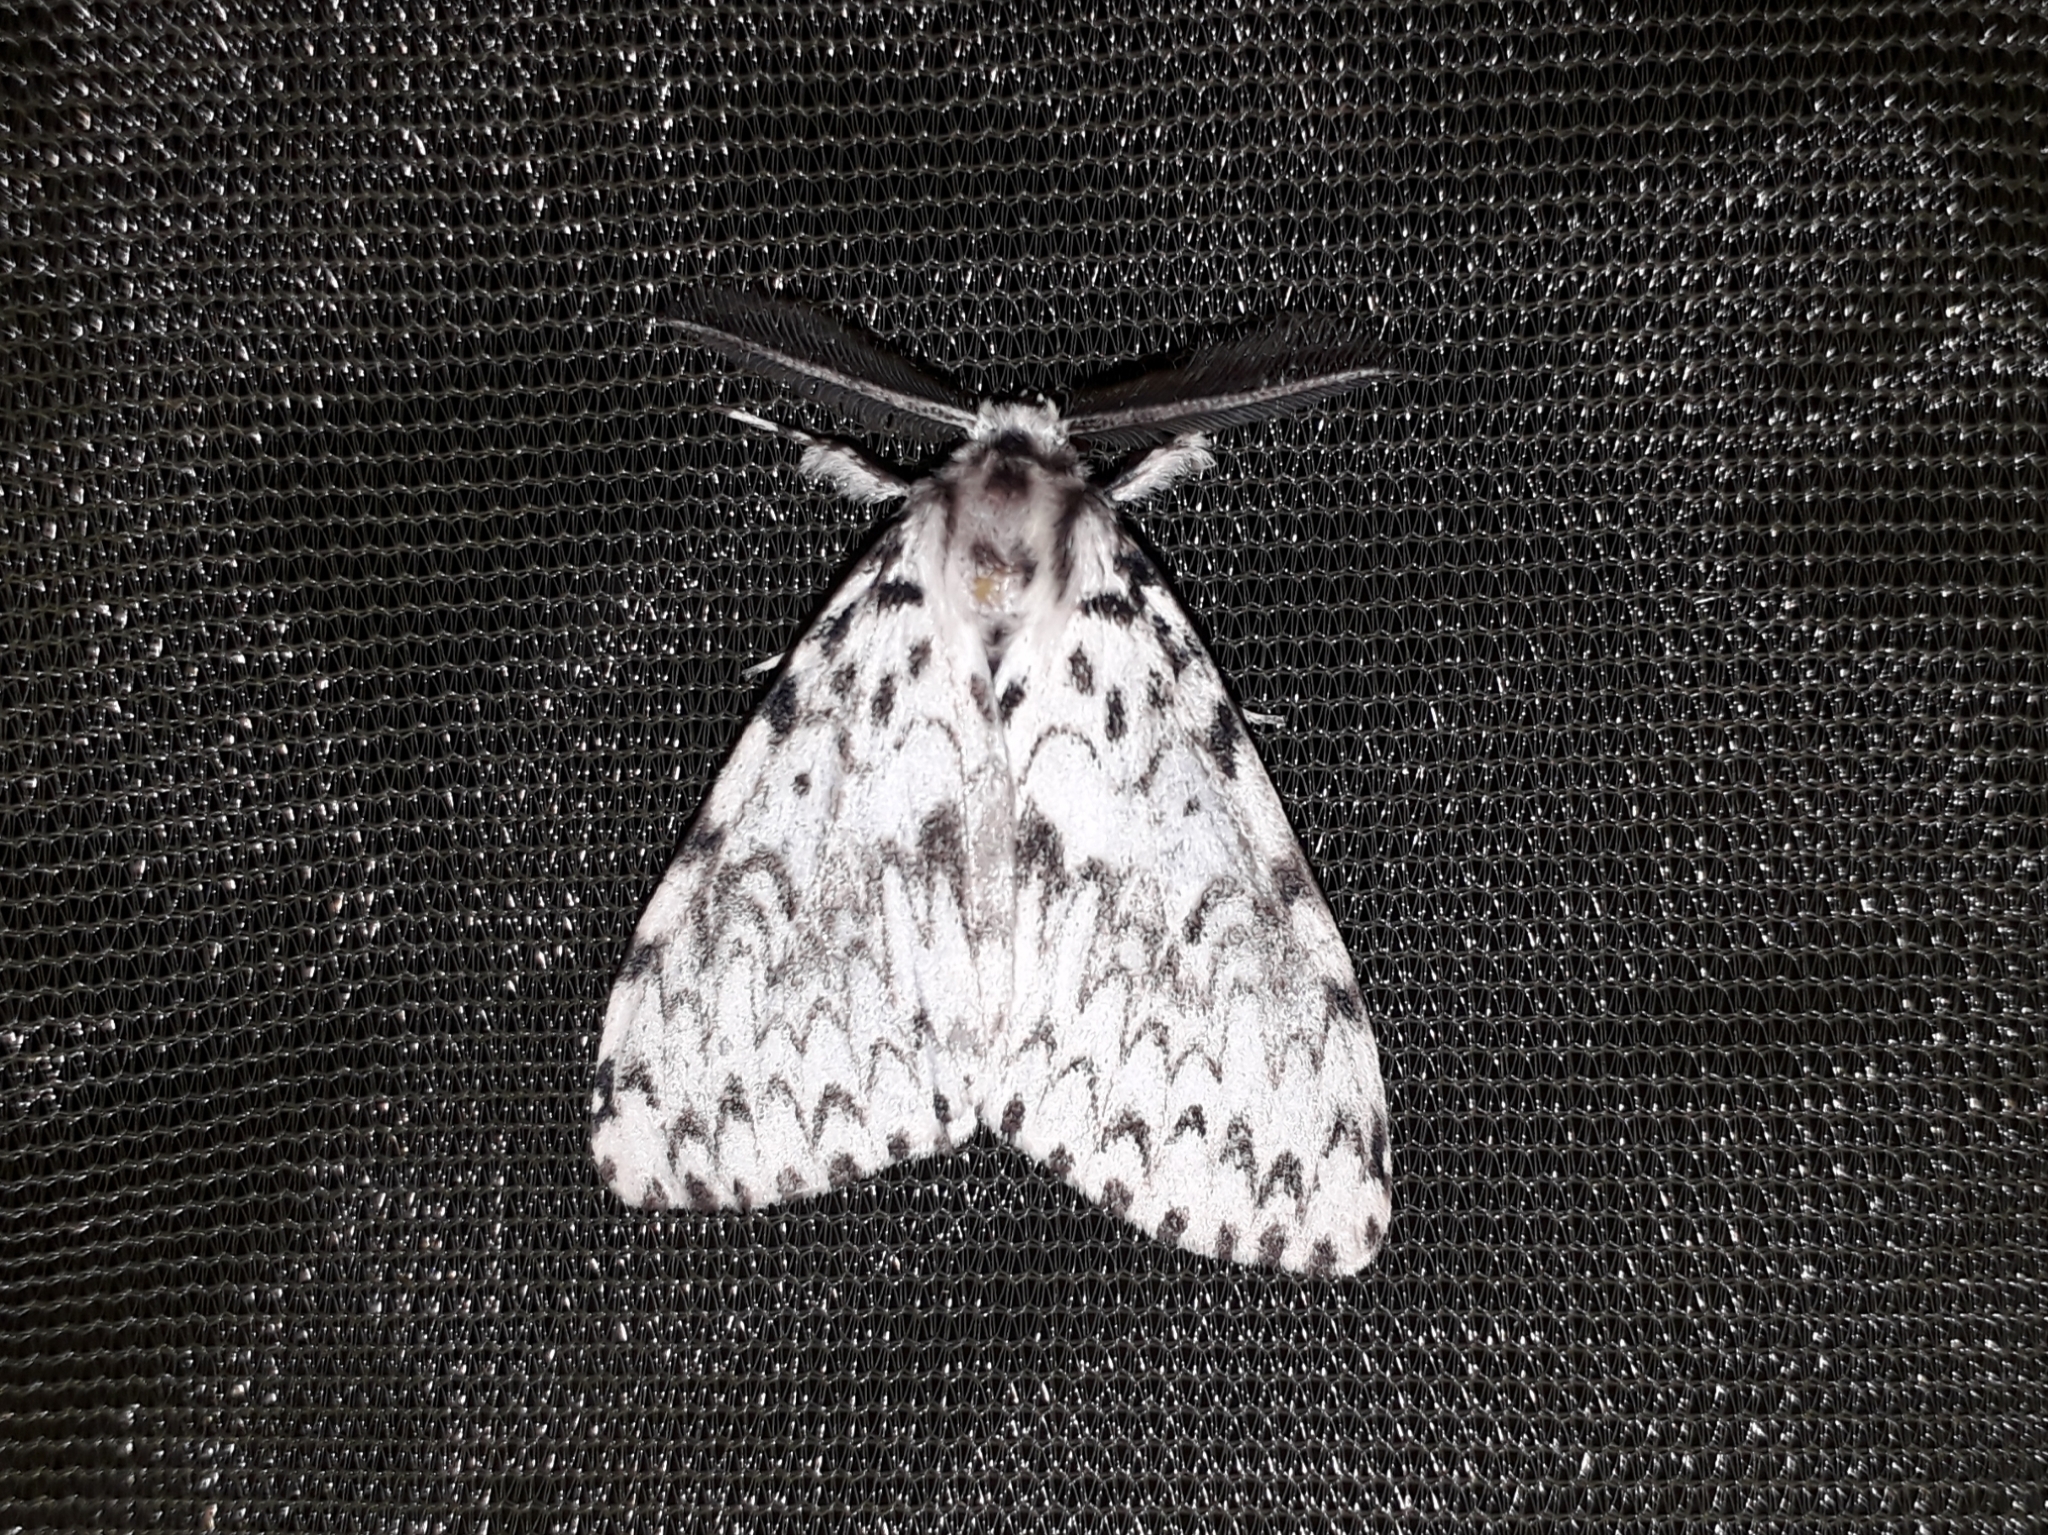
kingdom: Animalia
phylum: Arthropoda
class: Insecta
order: Lepidoptera
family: Erebidae
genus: Lymantria
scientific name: Lymantria monacha
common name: Black arches
